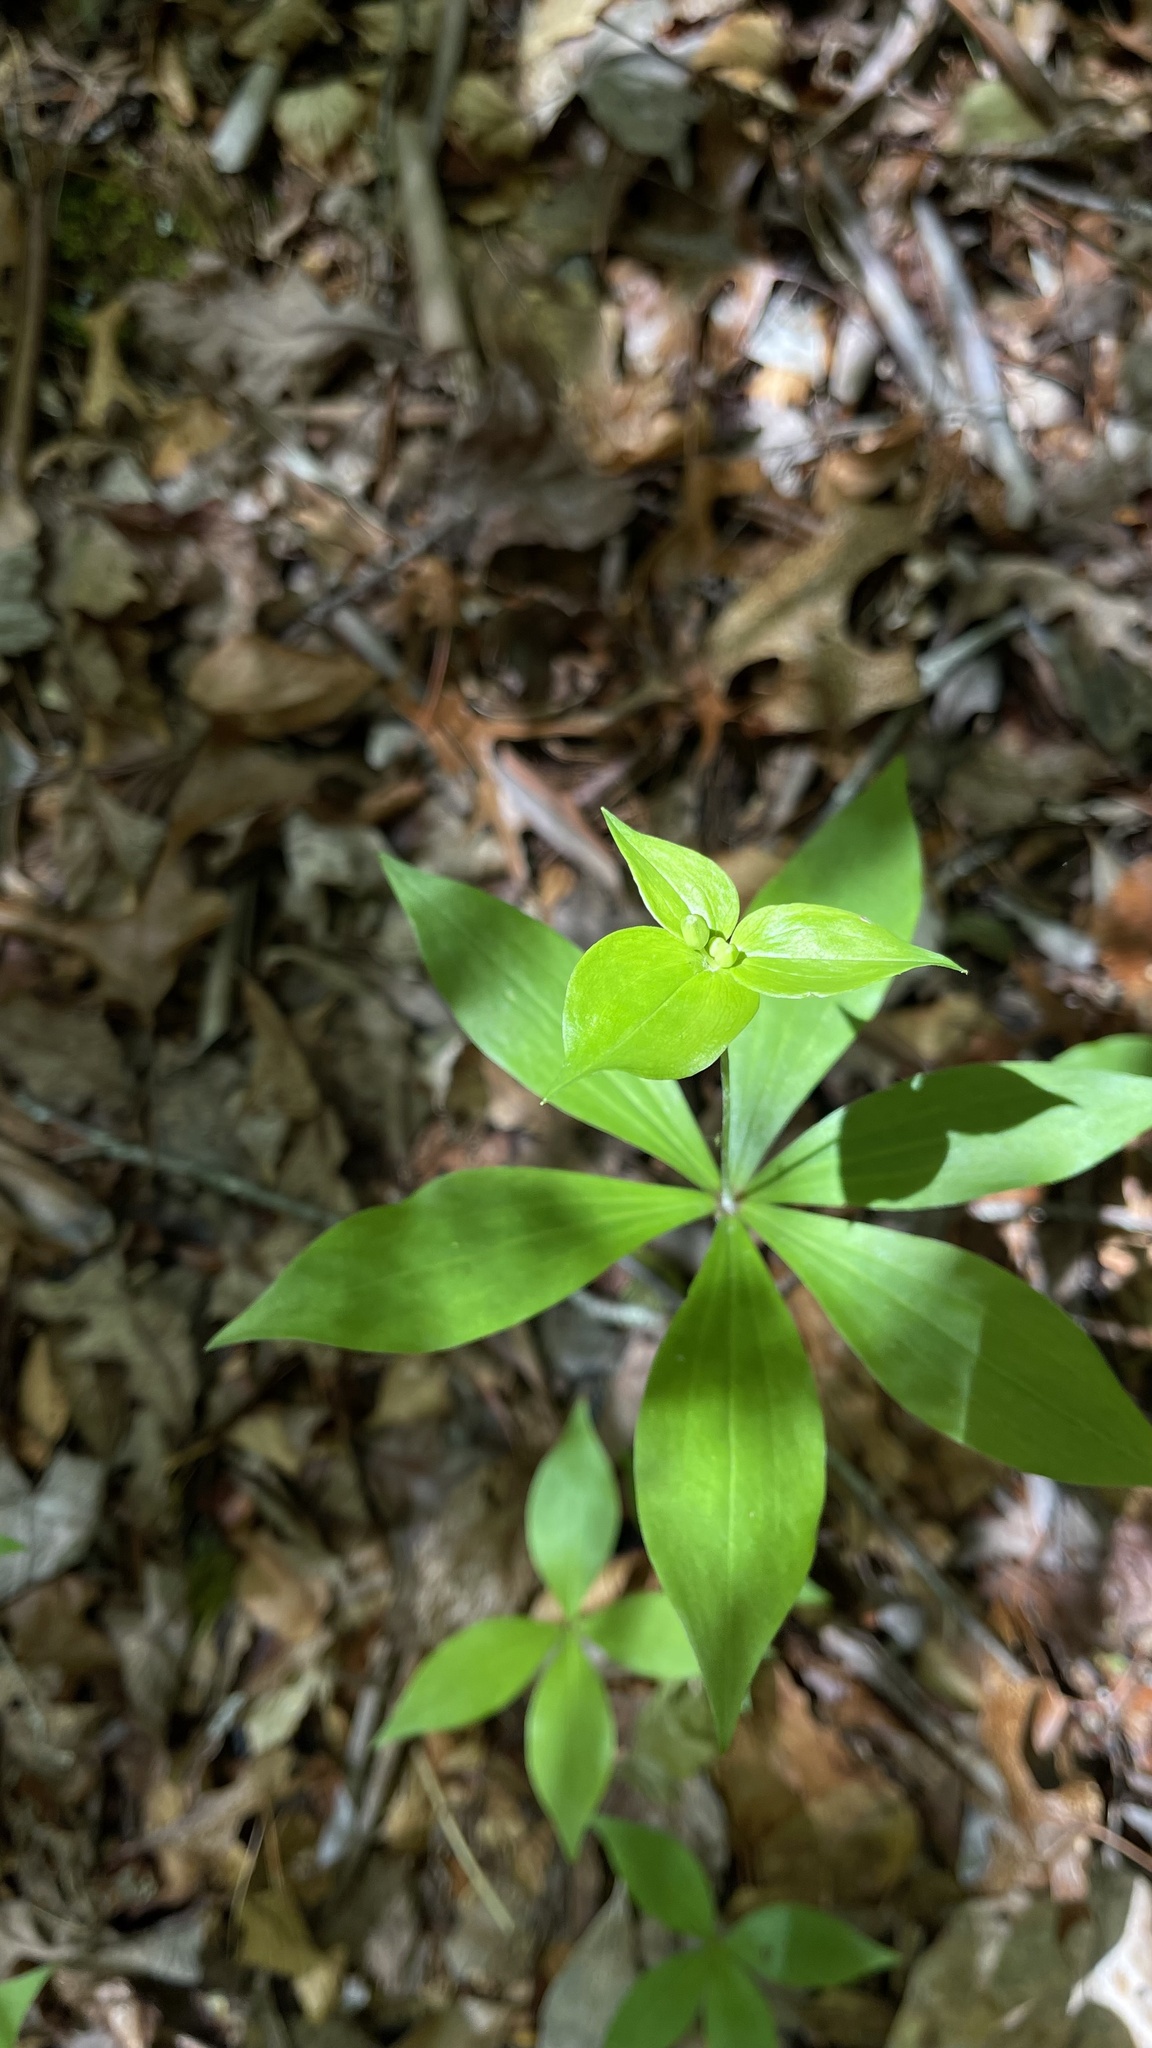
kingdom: Plantae
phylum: Tracheophyta
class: Liliopsida
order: Liliales
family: Liliaceae
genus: Medeola
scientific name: Medeola virginiana
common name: Indian cucumber-root
